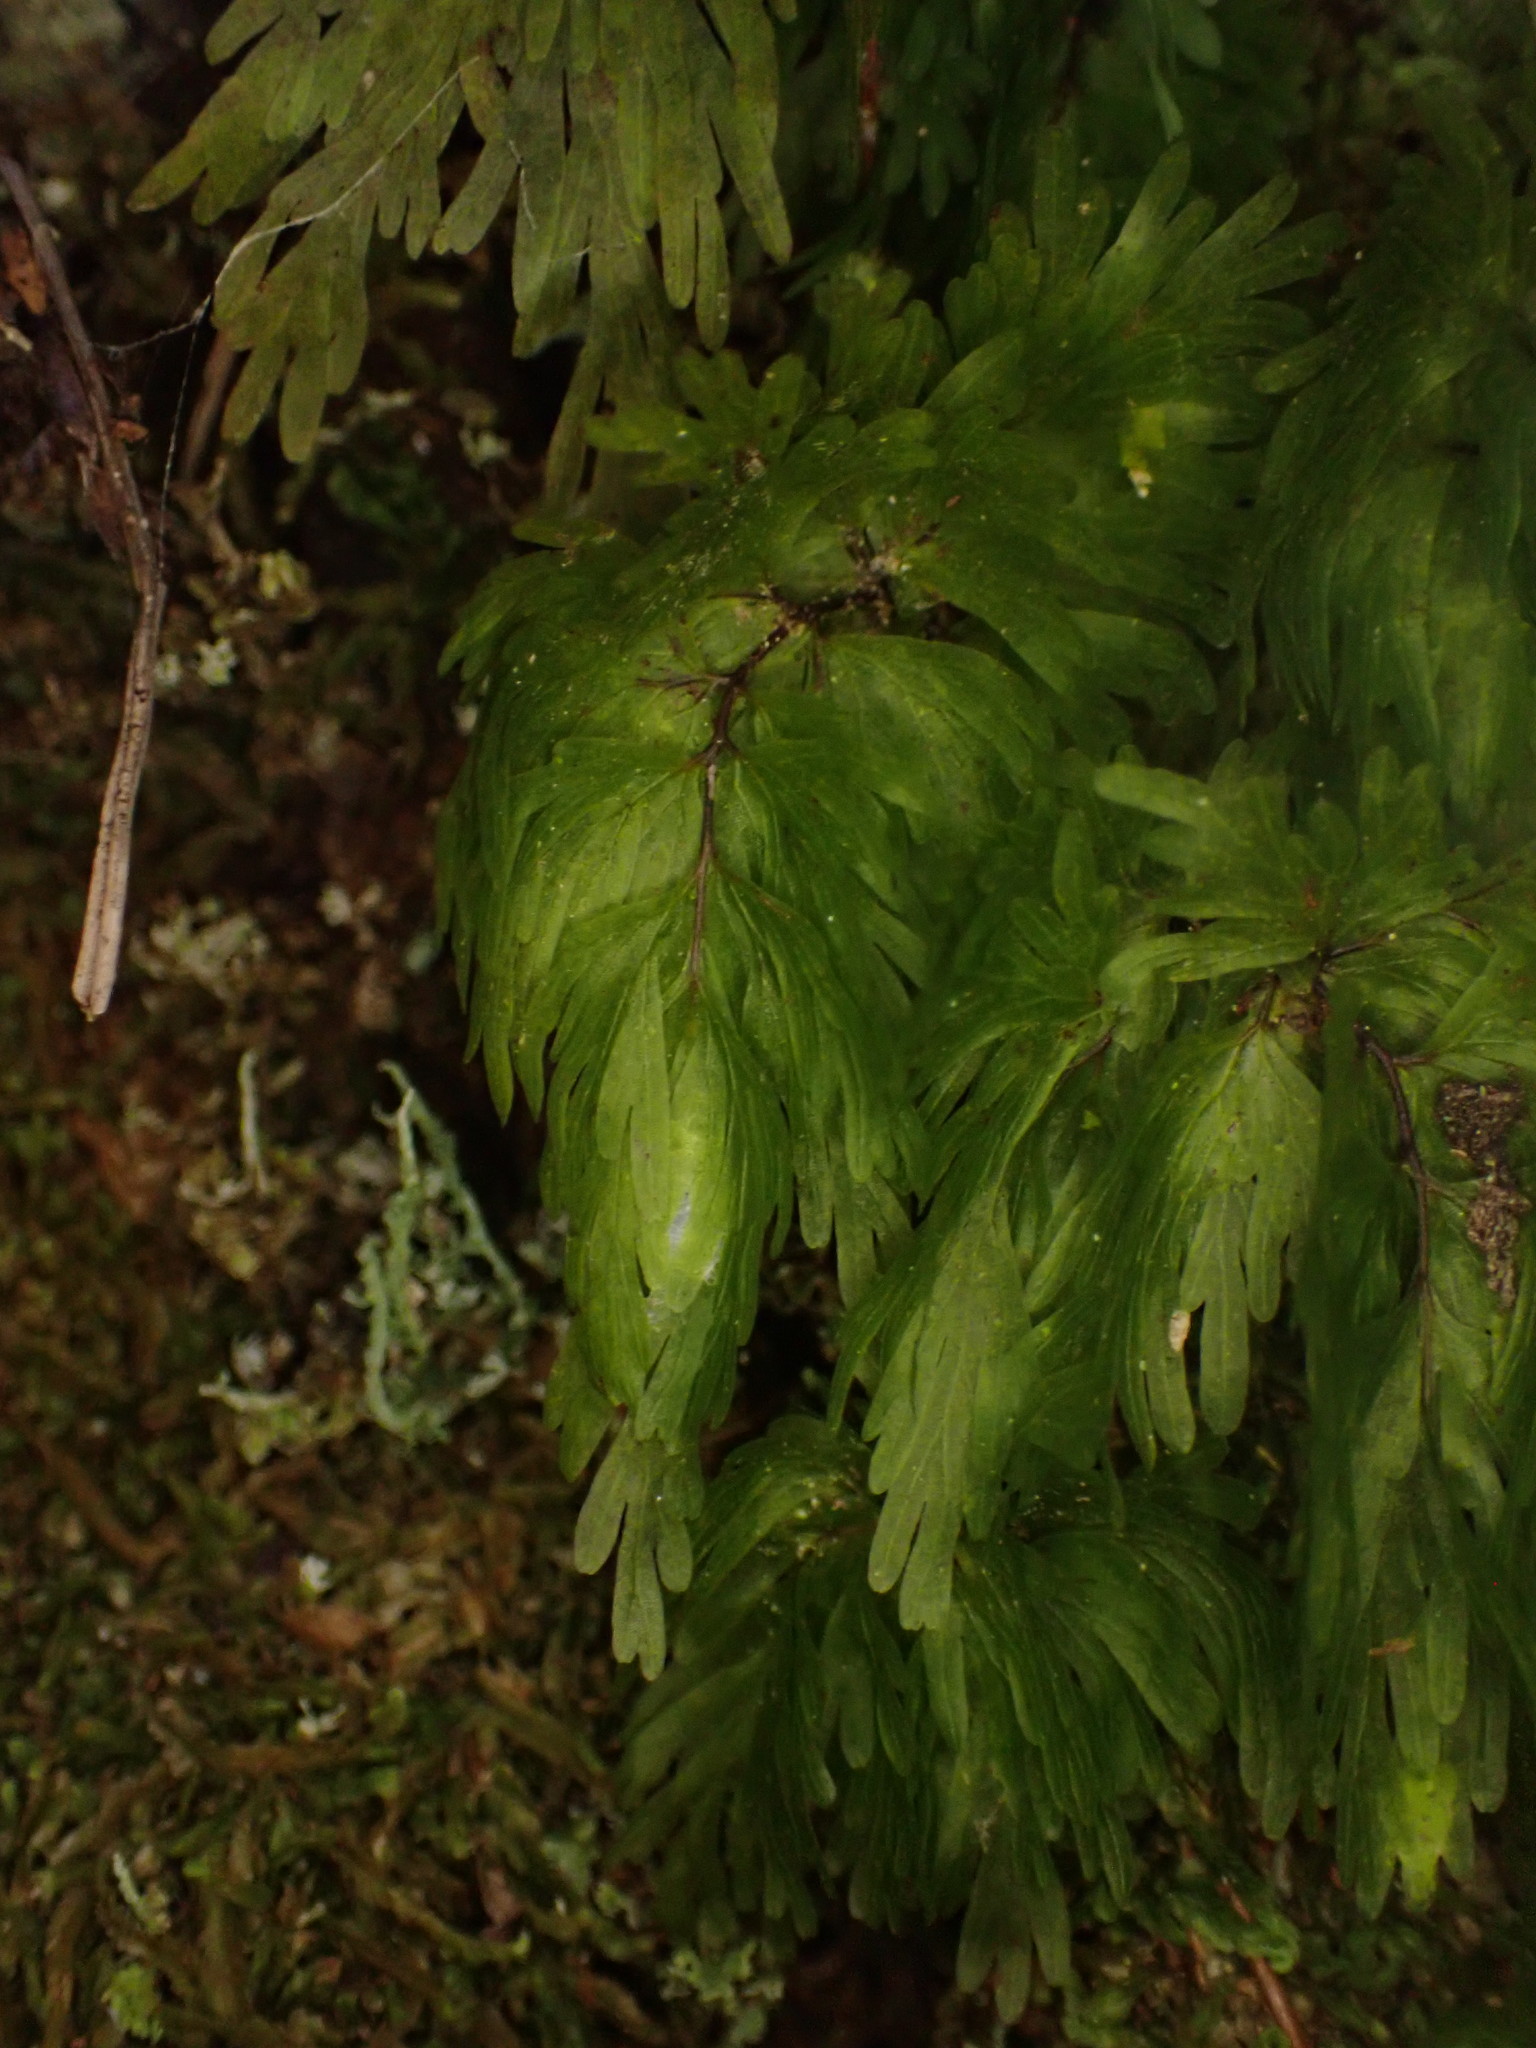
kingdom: Plantae
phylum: Tracheophyta
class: Polypodiopsida
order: Hymenophyllales
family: Hymenophyllaceae
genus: Hymenophyllum
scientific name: Hymenophyllum flabellatum
